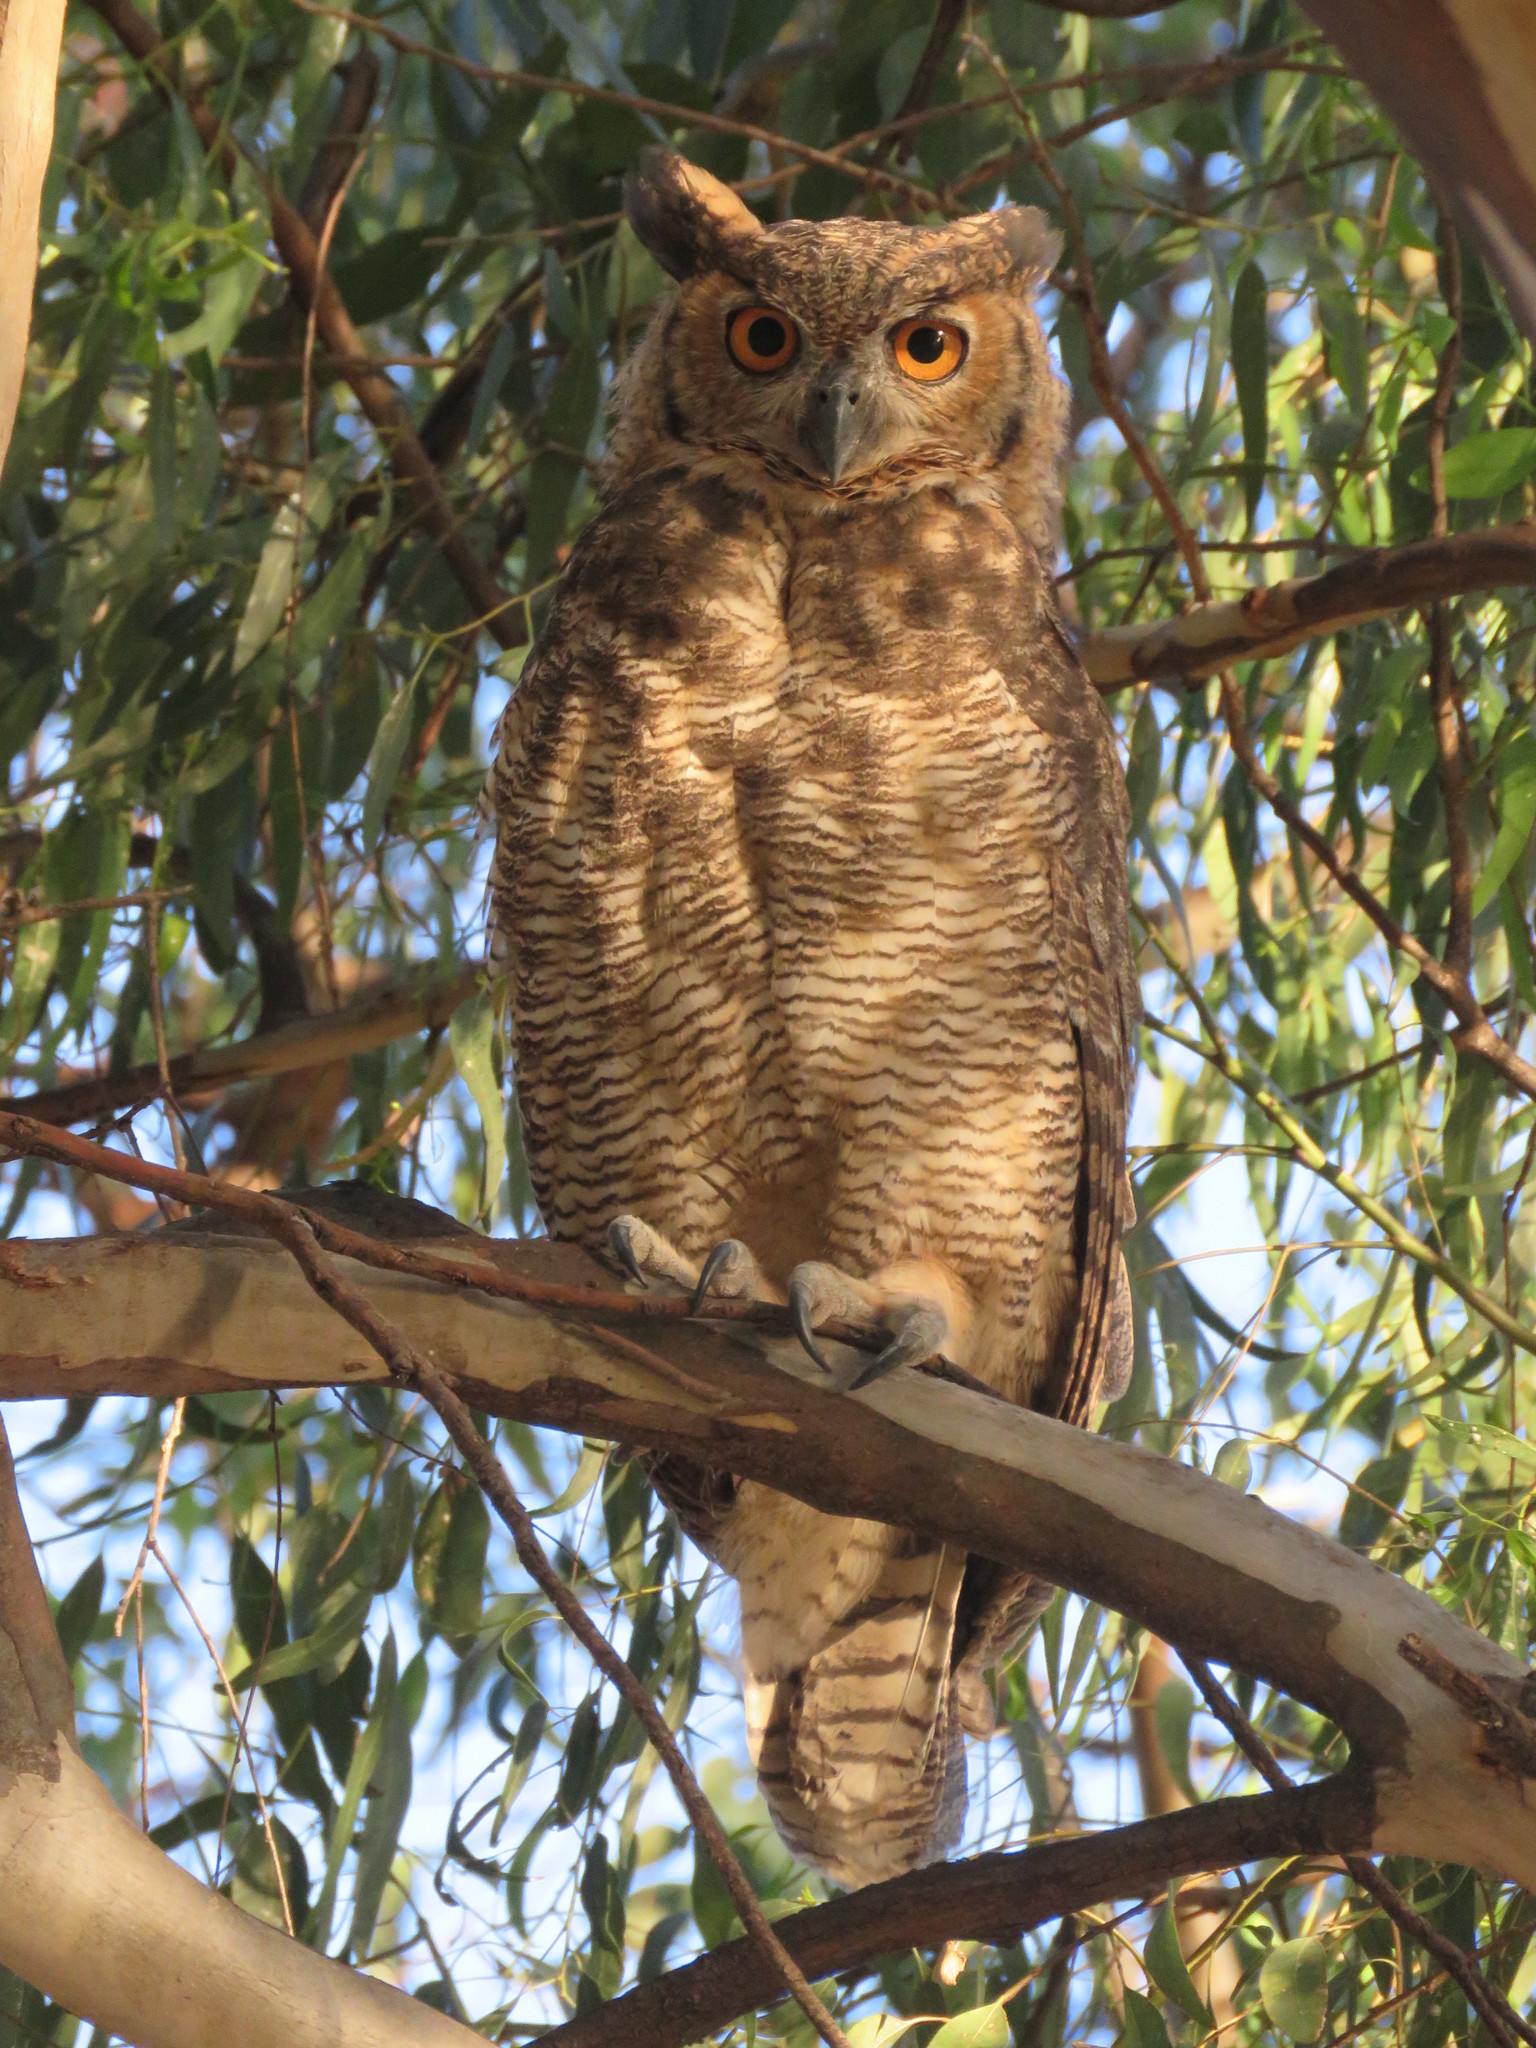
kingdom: Animalia
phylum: Chordata
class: Aves
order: Strigiformes
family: Strigidae
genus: Bubo
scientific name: Bubo virginianus
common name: Great horned owl
